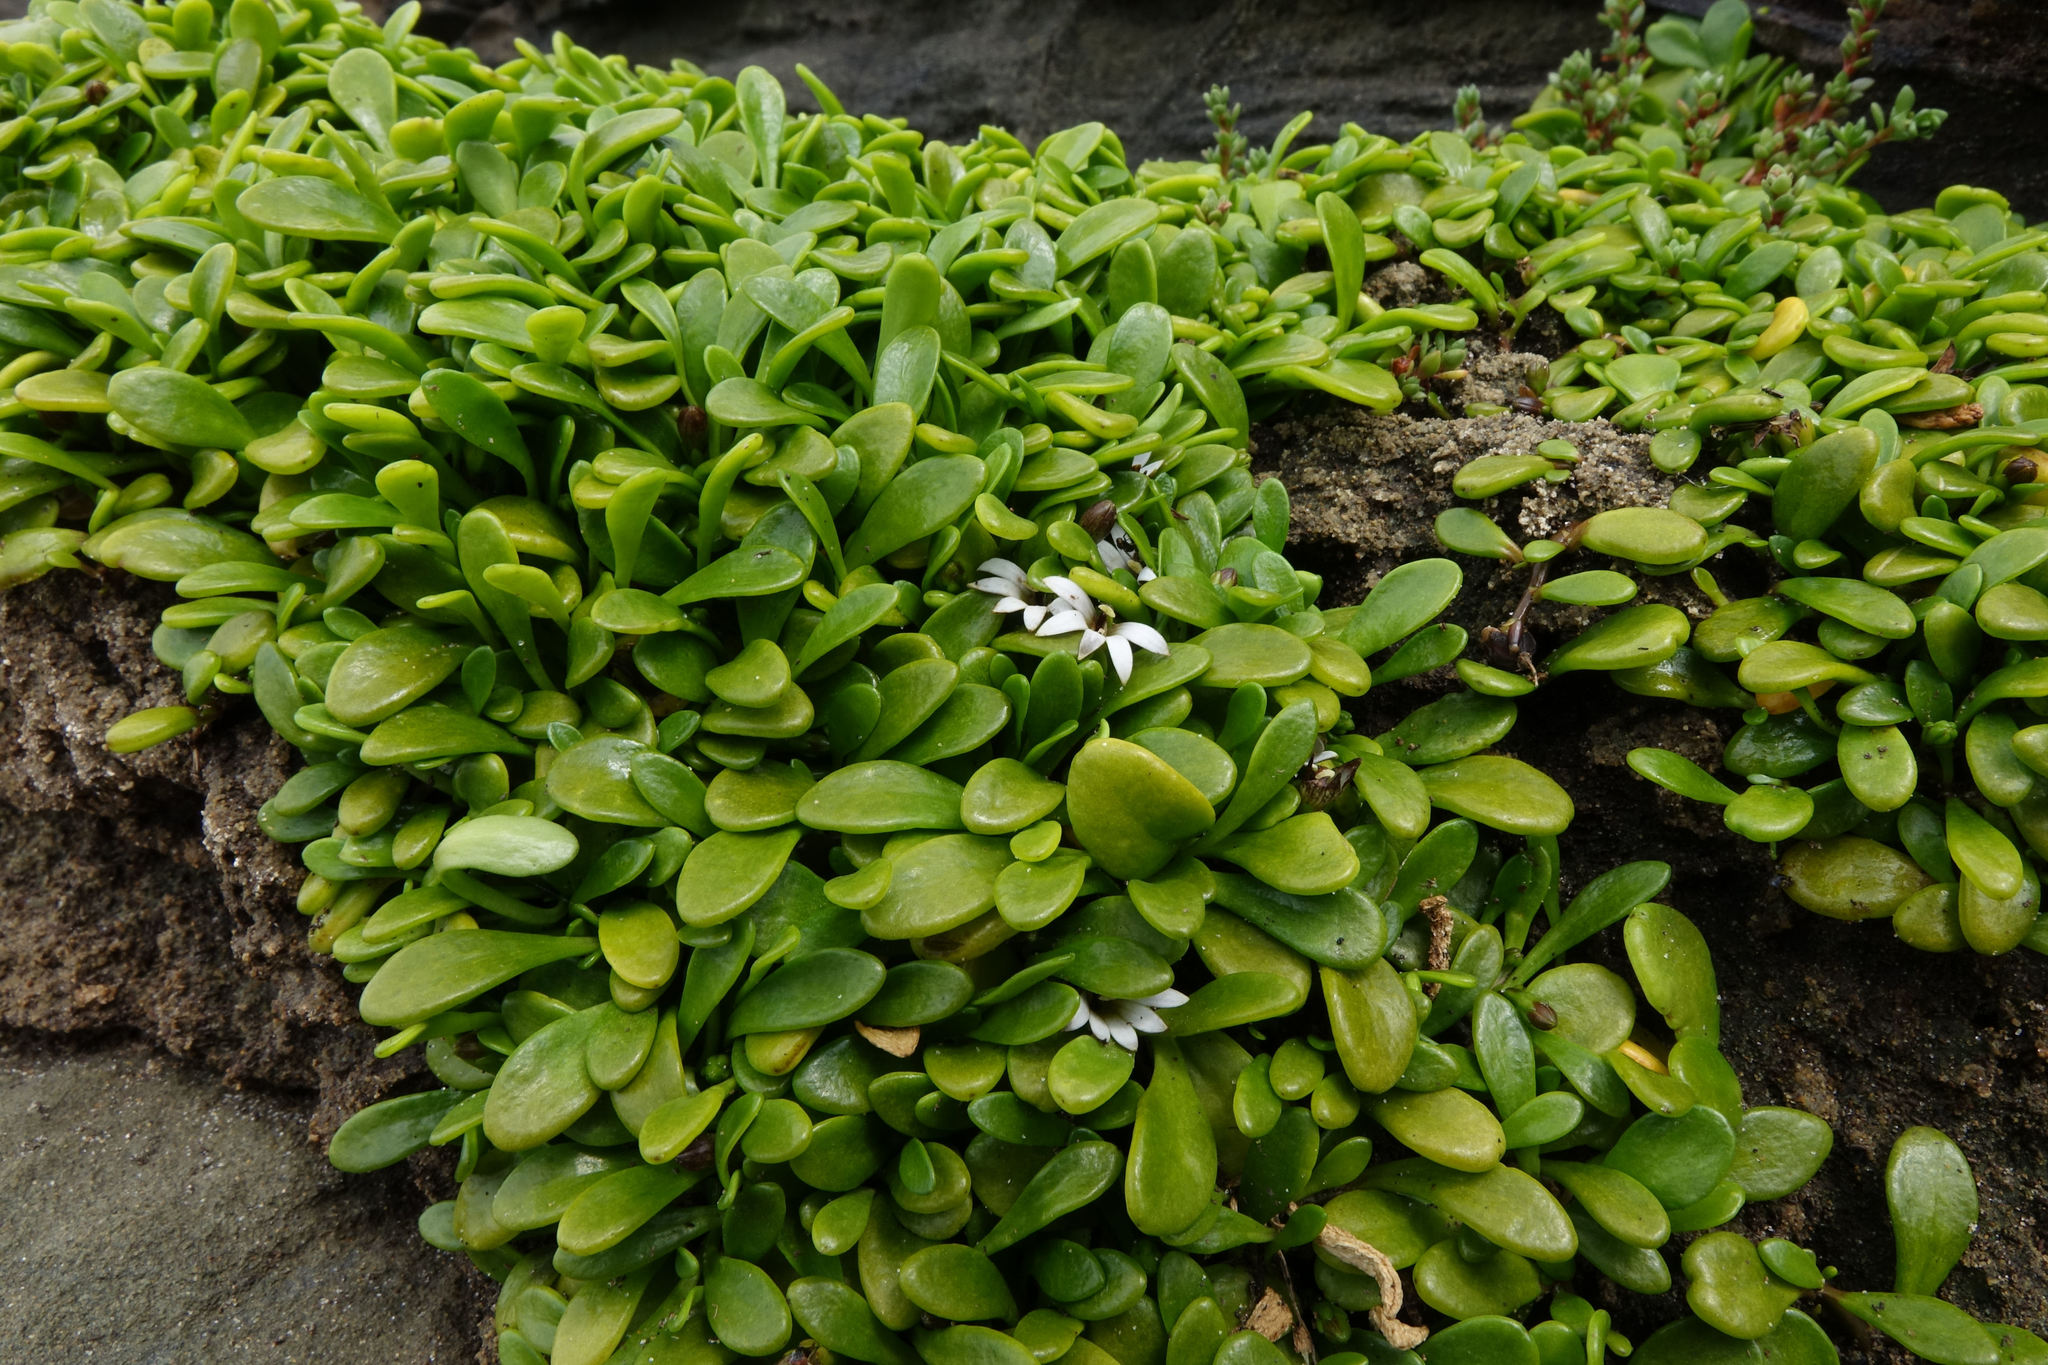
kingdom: Plantae
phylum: Tracheophyta
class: Magnoliopsida
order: Asterales
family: Goodeniaceae
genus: Goodenia
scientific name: Goodenia radicans
